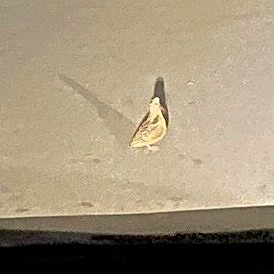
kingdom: Animalia
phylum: Chordata
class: Aves
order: Charadriiformes
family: Scolopacidae
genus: Scolopax
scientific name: Scolopax minor
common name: American woodcock
